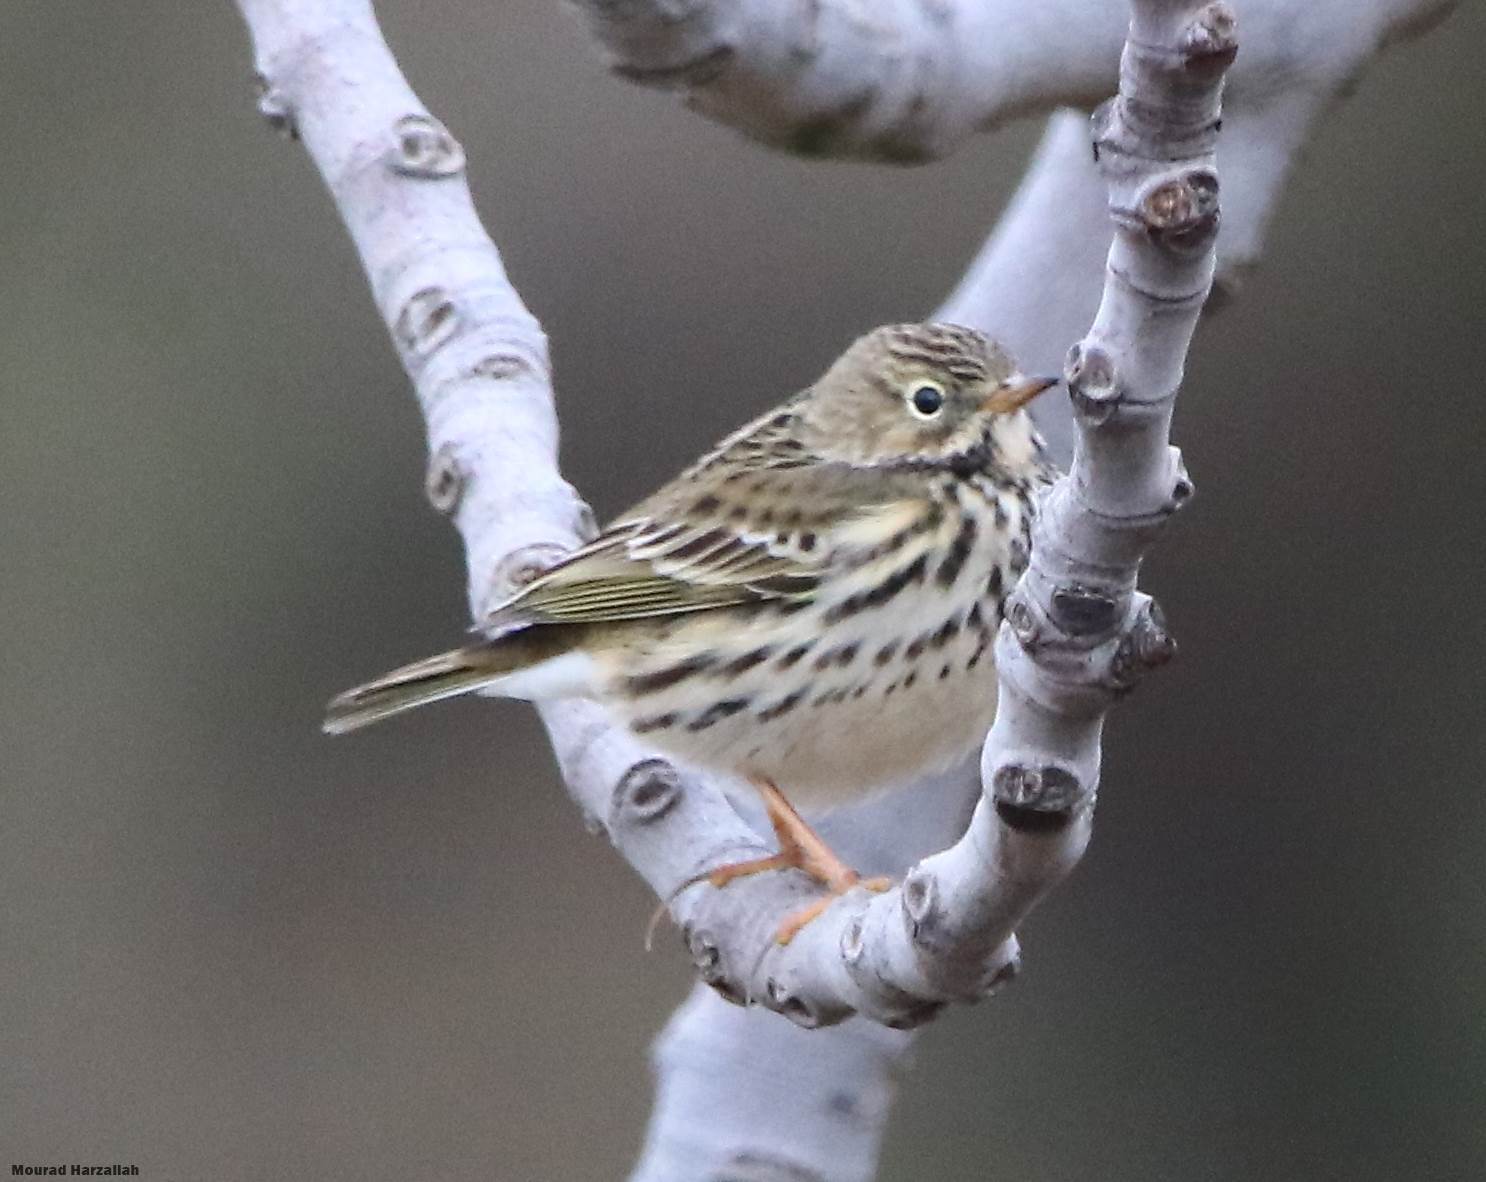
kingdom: Animalia
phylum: Chordata
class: Aves
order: Passeriformes
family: Motacillidae
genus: Anthus
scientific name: Anthus pratensis
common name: Meadow pipit
